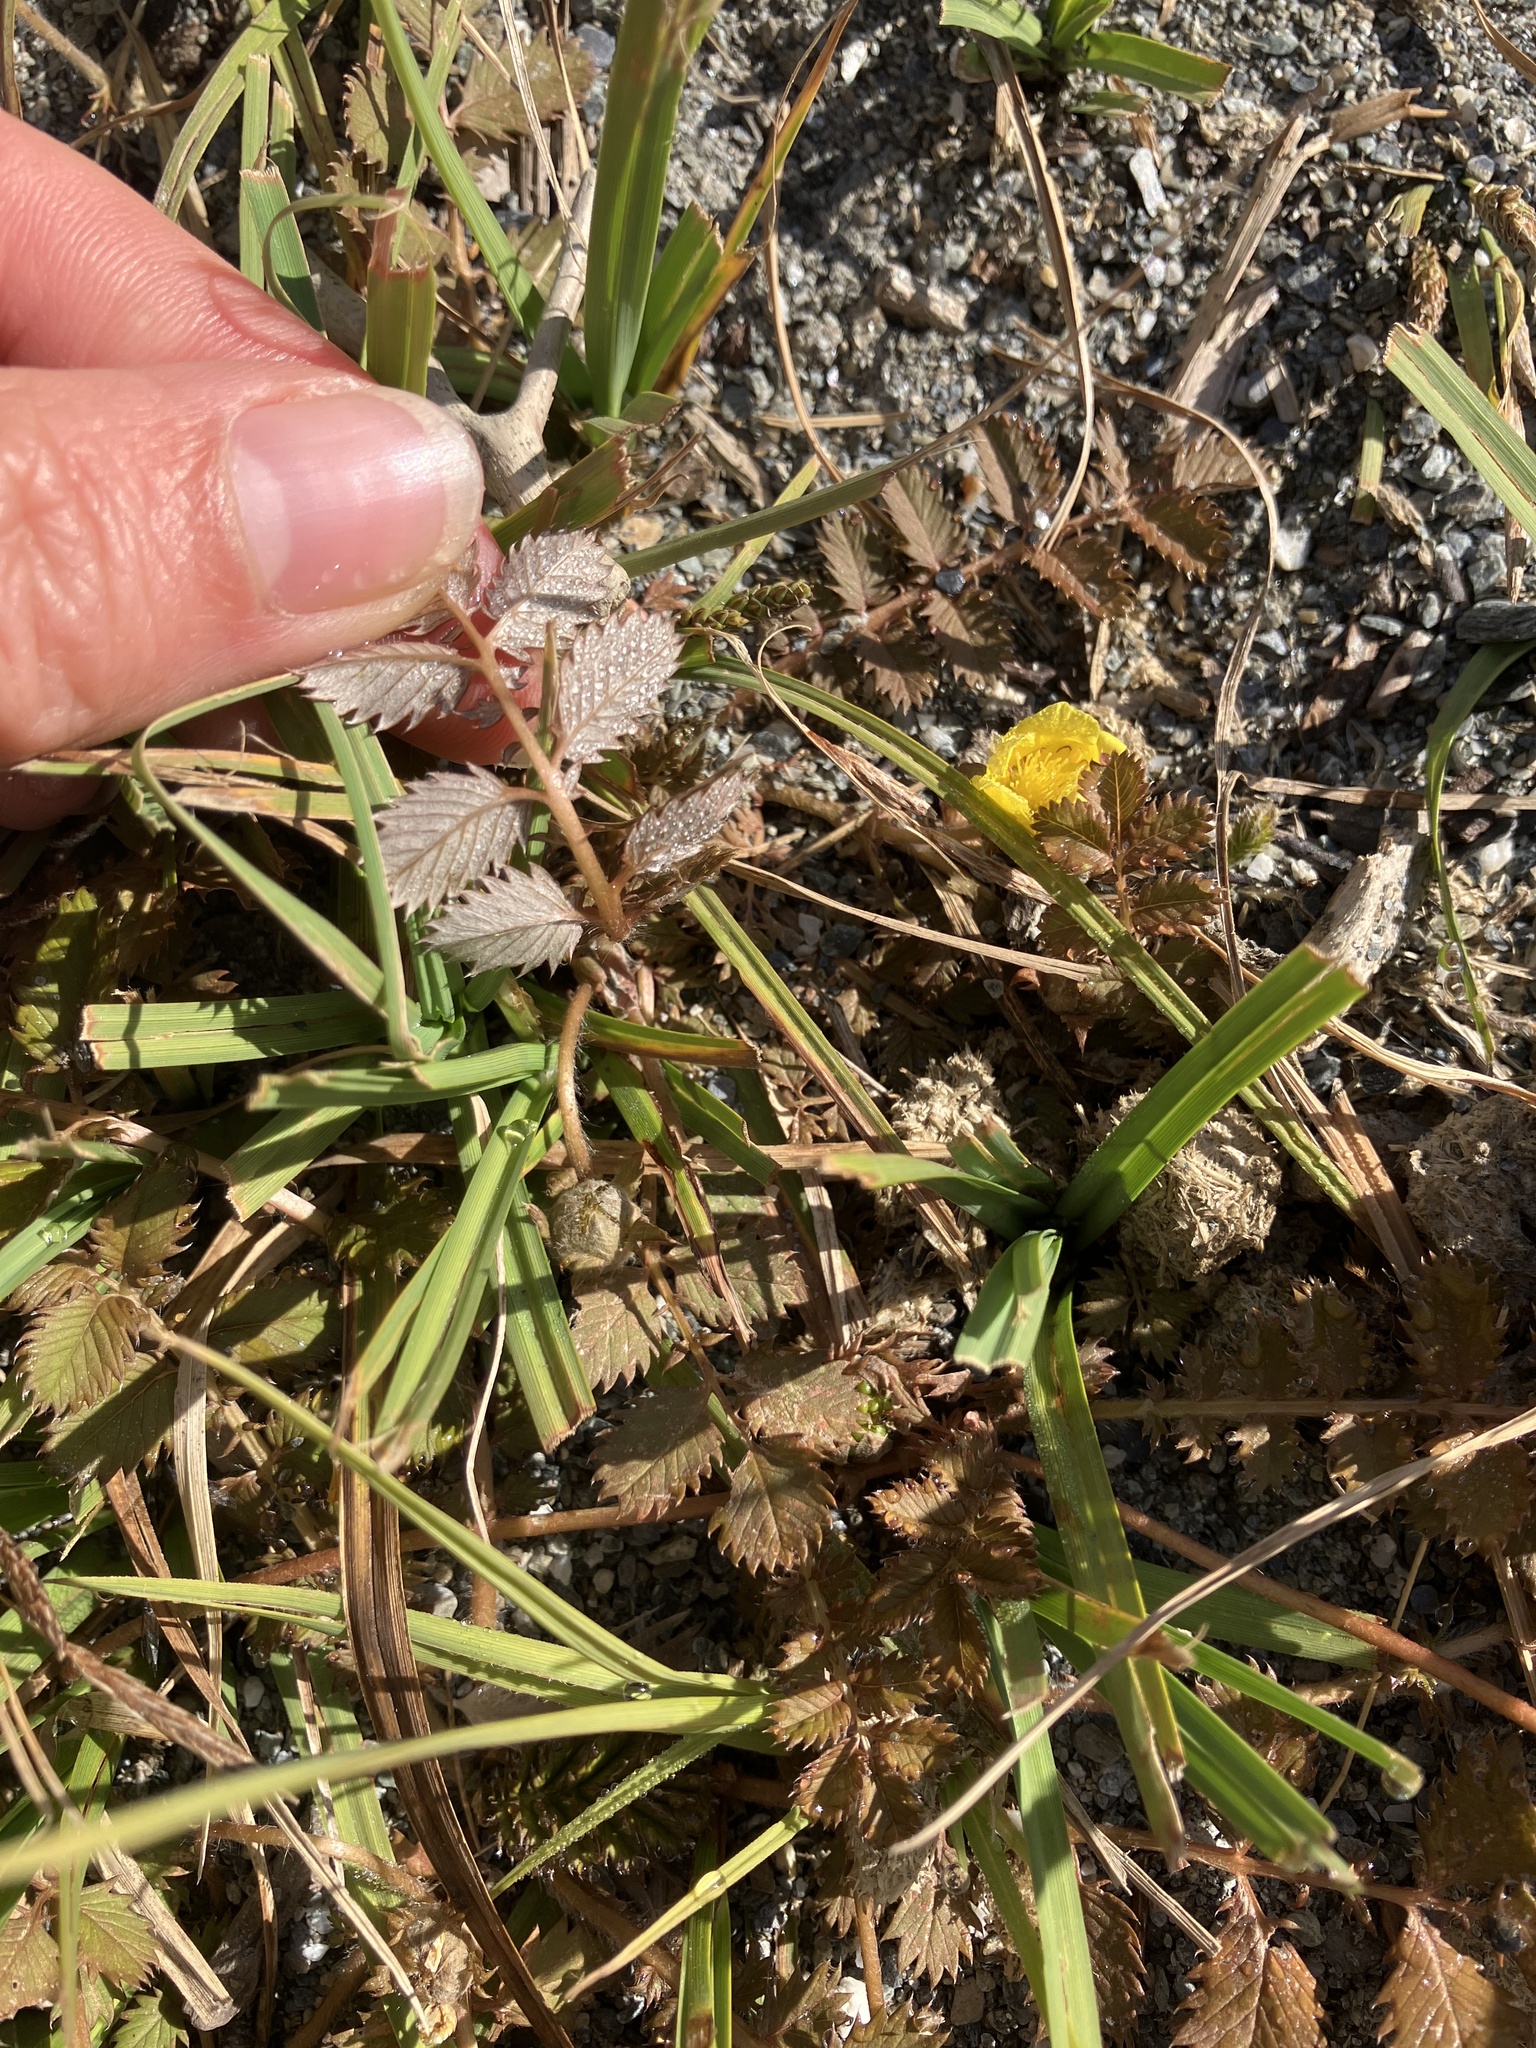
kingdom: Plantae
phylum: Tracheophyta
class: Magnoliopsida
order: Rosales
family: Rosaceae
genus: Argentina
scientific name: Argentina anserinoides
